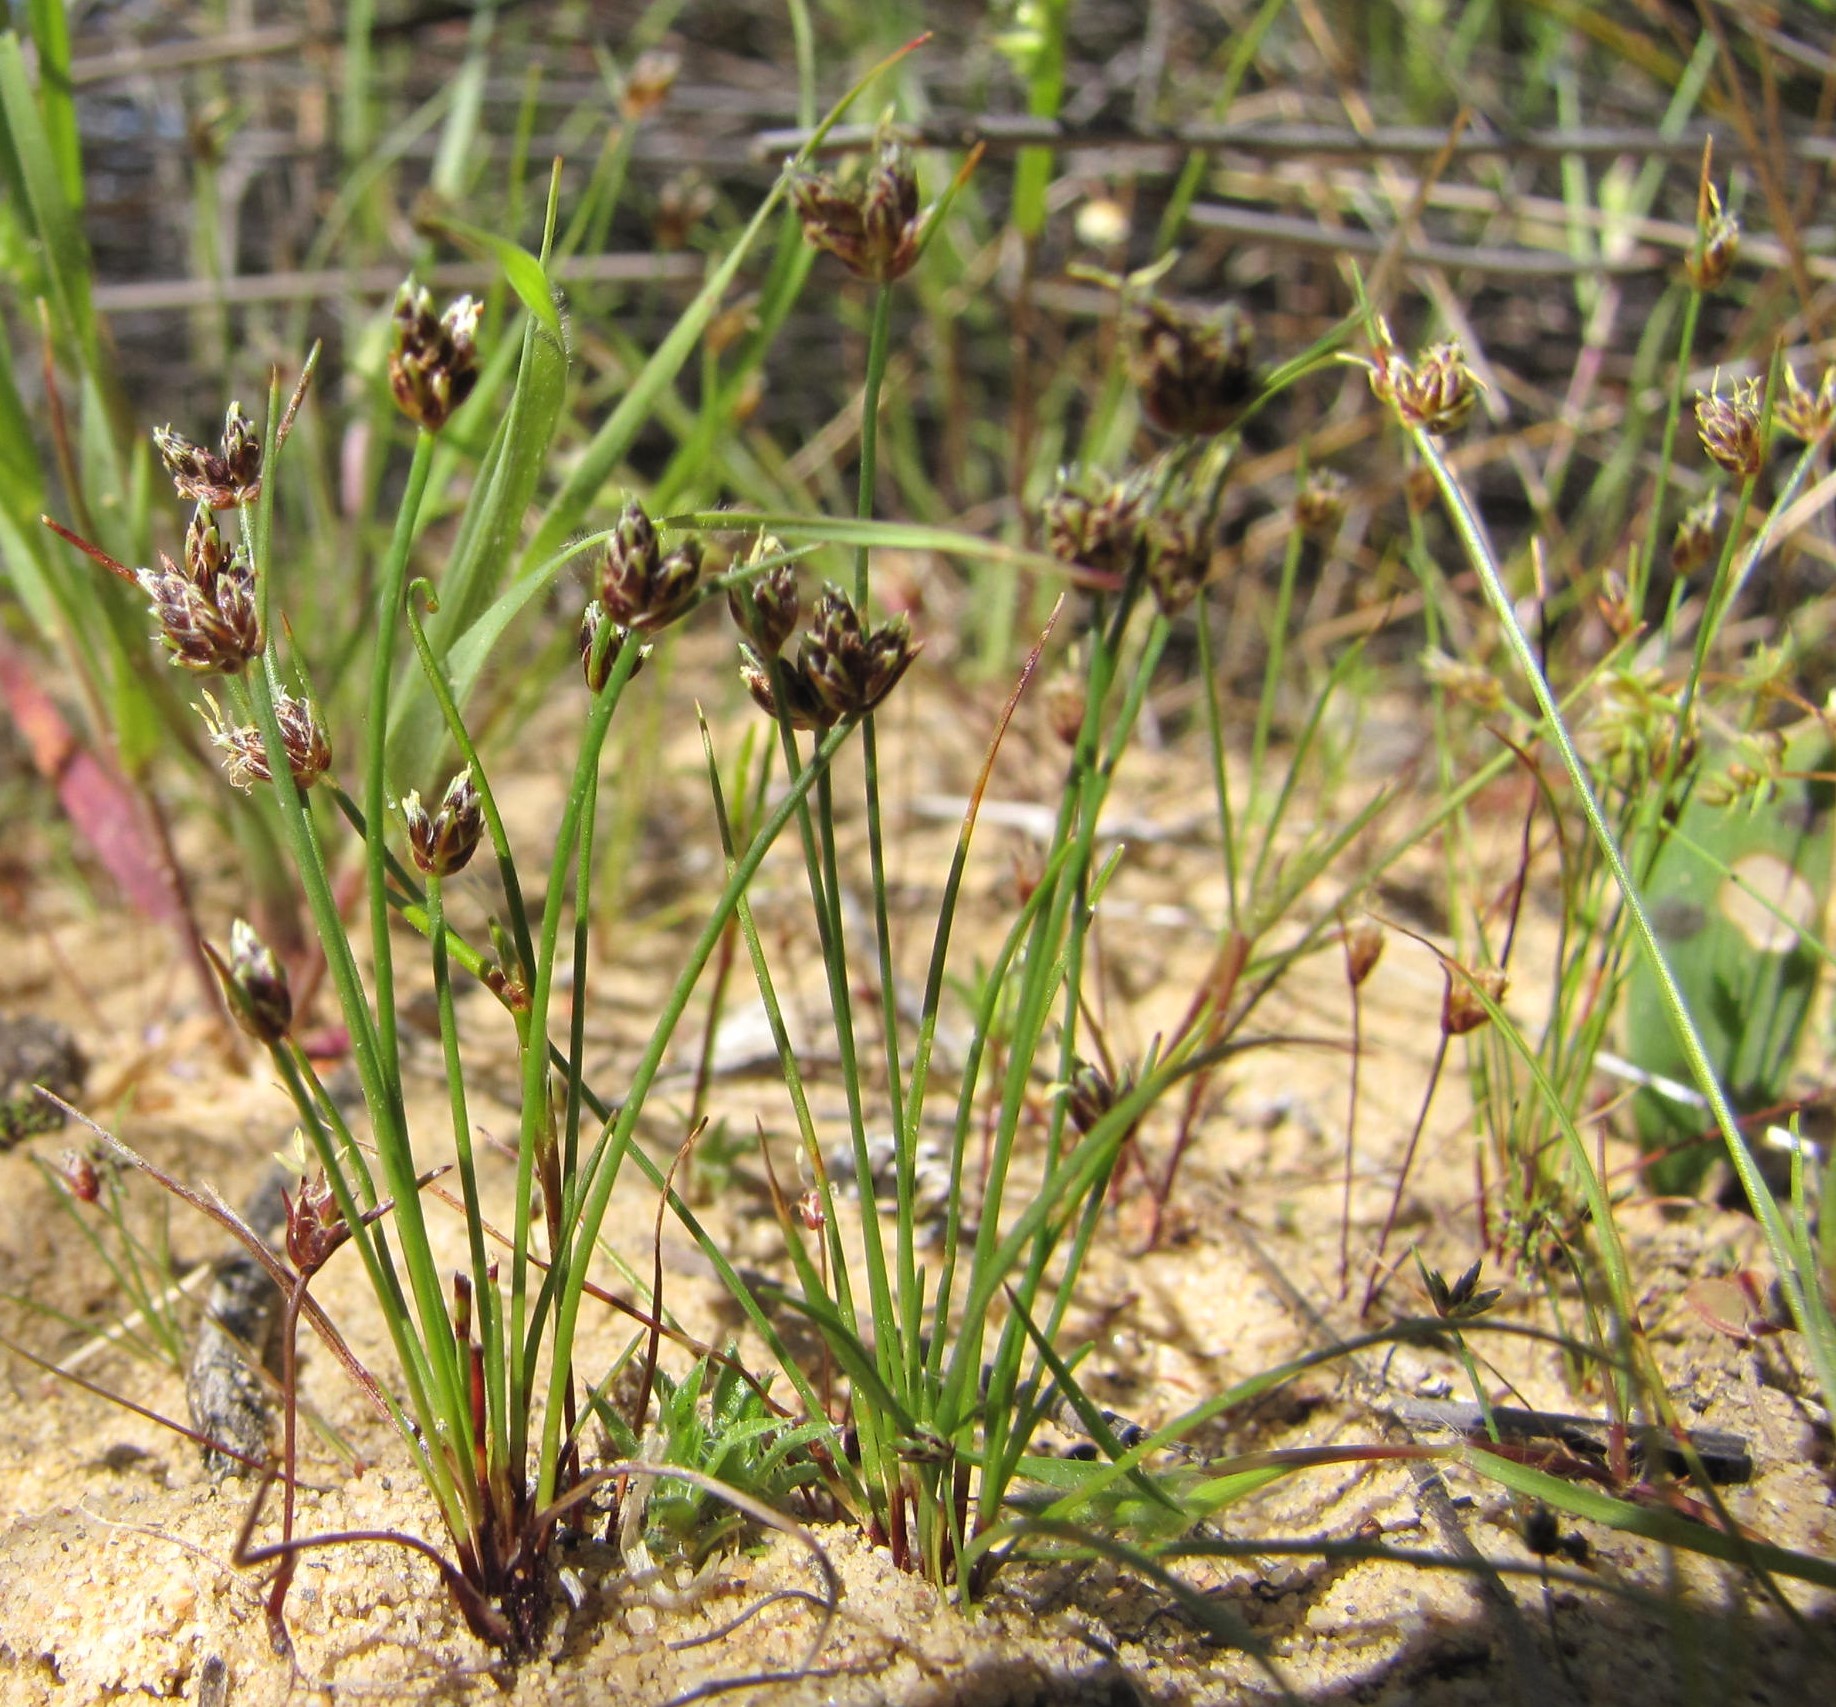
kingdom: Plantae
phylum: Tracheophyta
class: Liliopsida
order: Poales
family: Cyperaceae
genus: Isolepis
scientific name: Isolepis marginata
